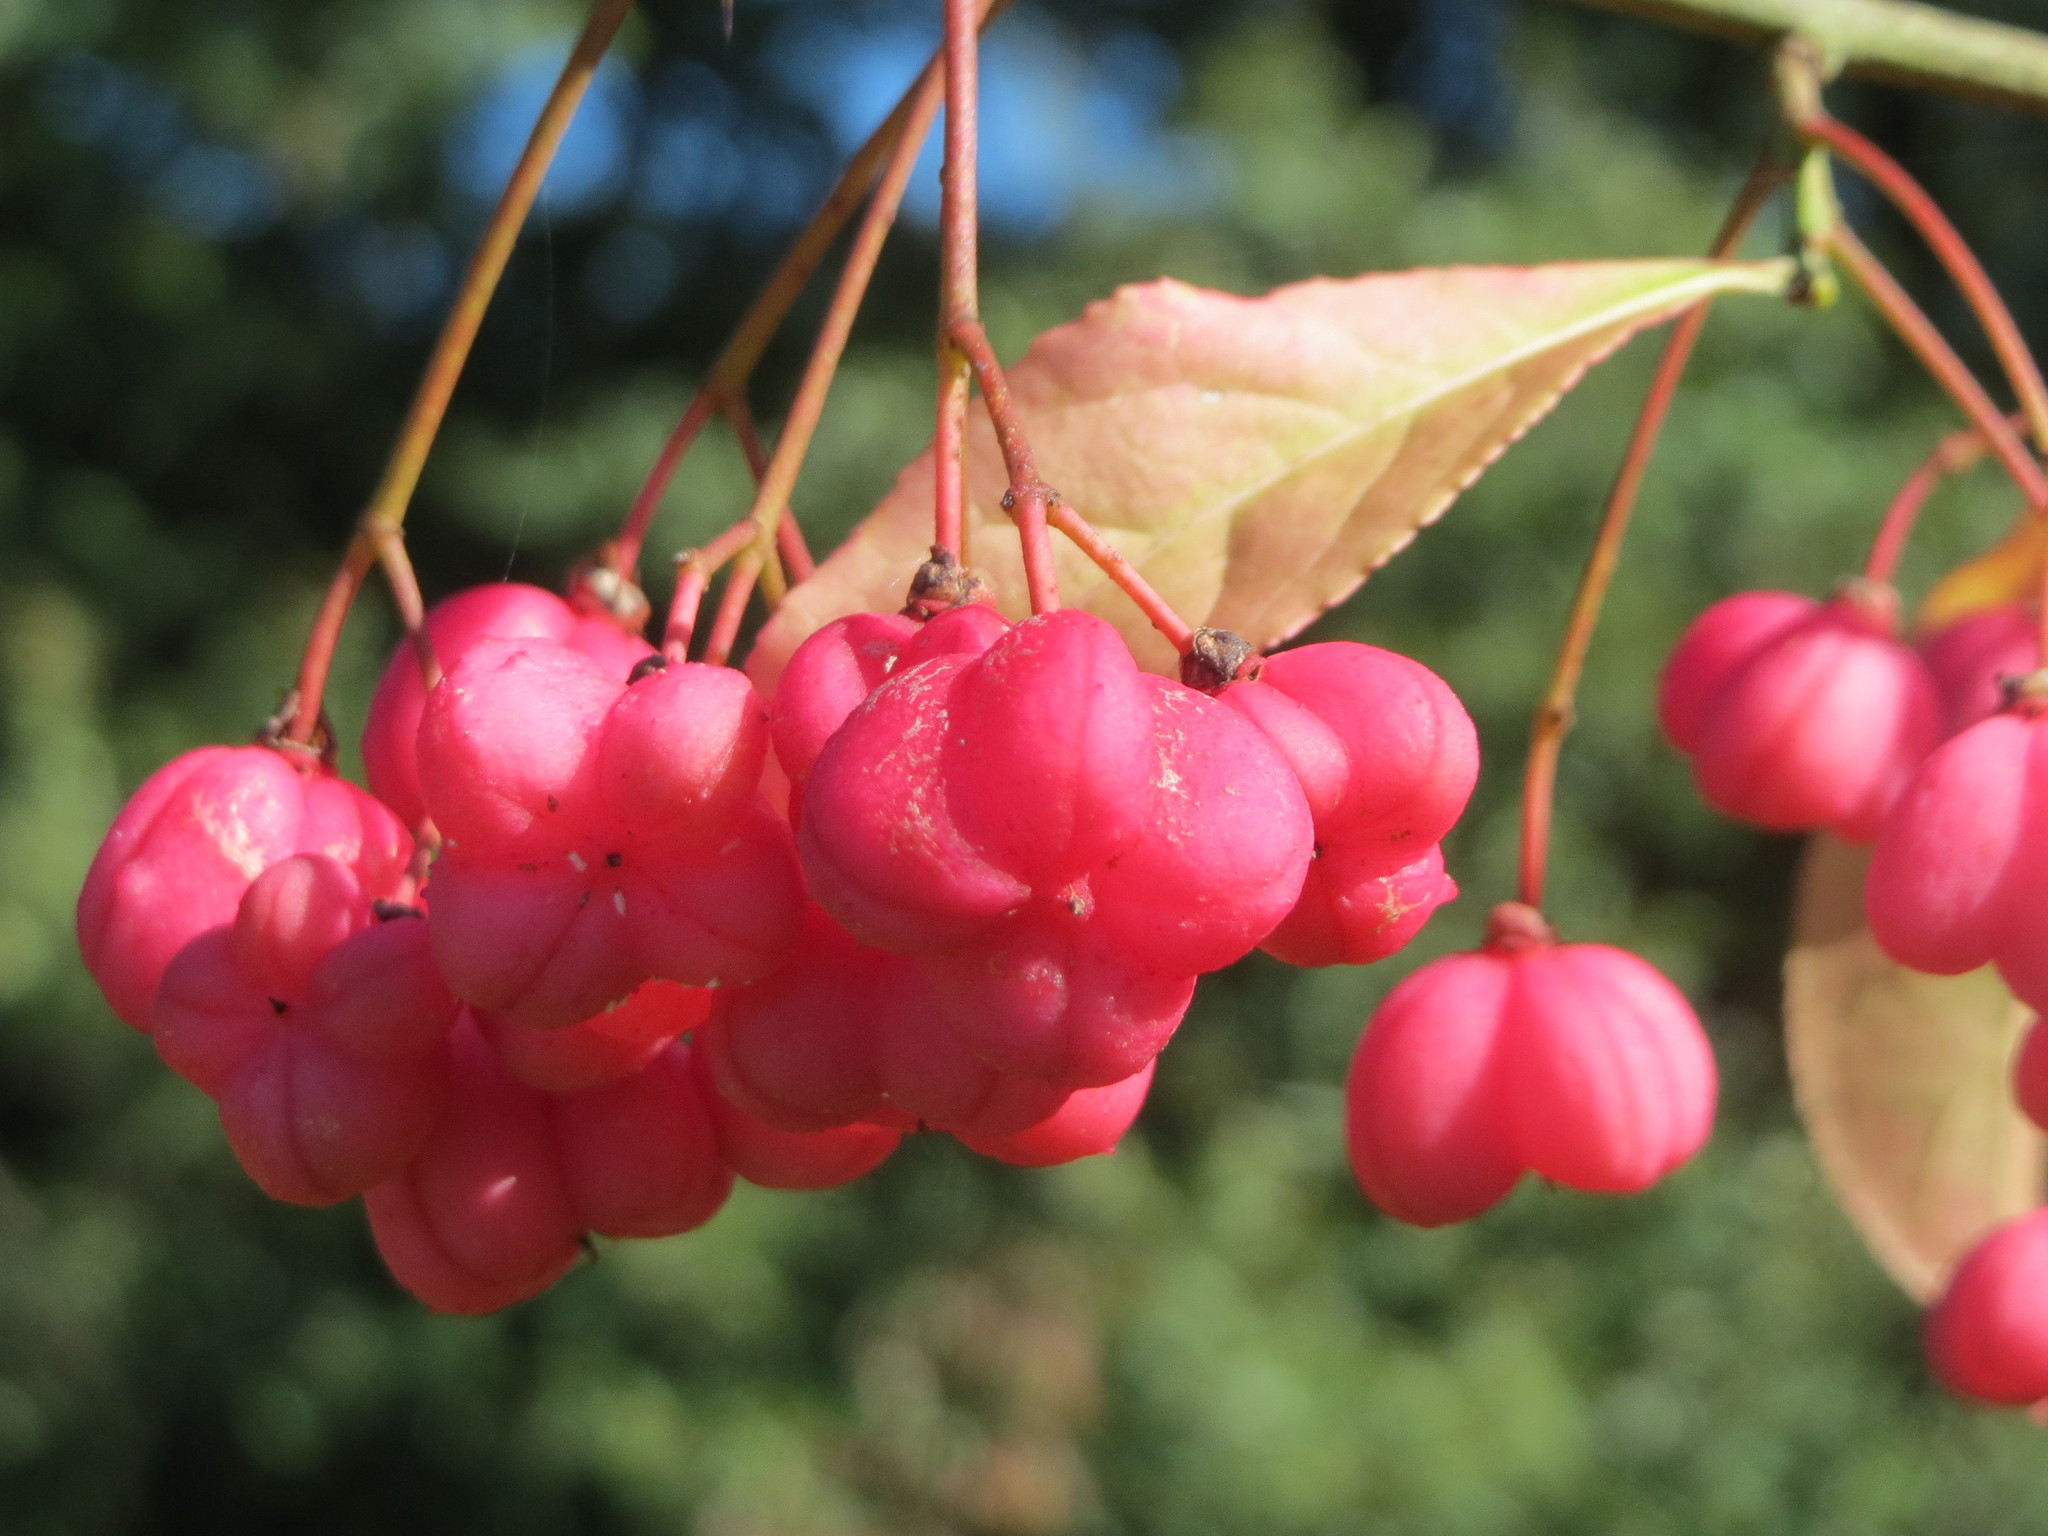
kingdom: Plantae
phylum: Tracheophyta
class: Magnoliopsida
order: Celastrales
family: Celastraceae
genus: Euonymus
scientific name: Euonymus europaeus
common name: Spindle
